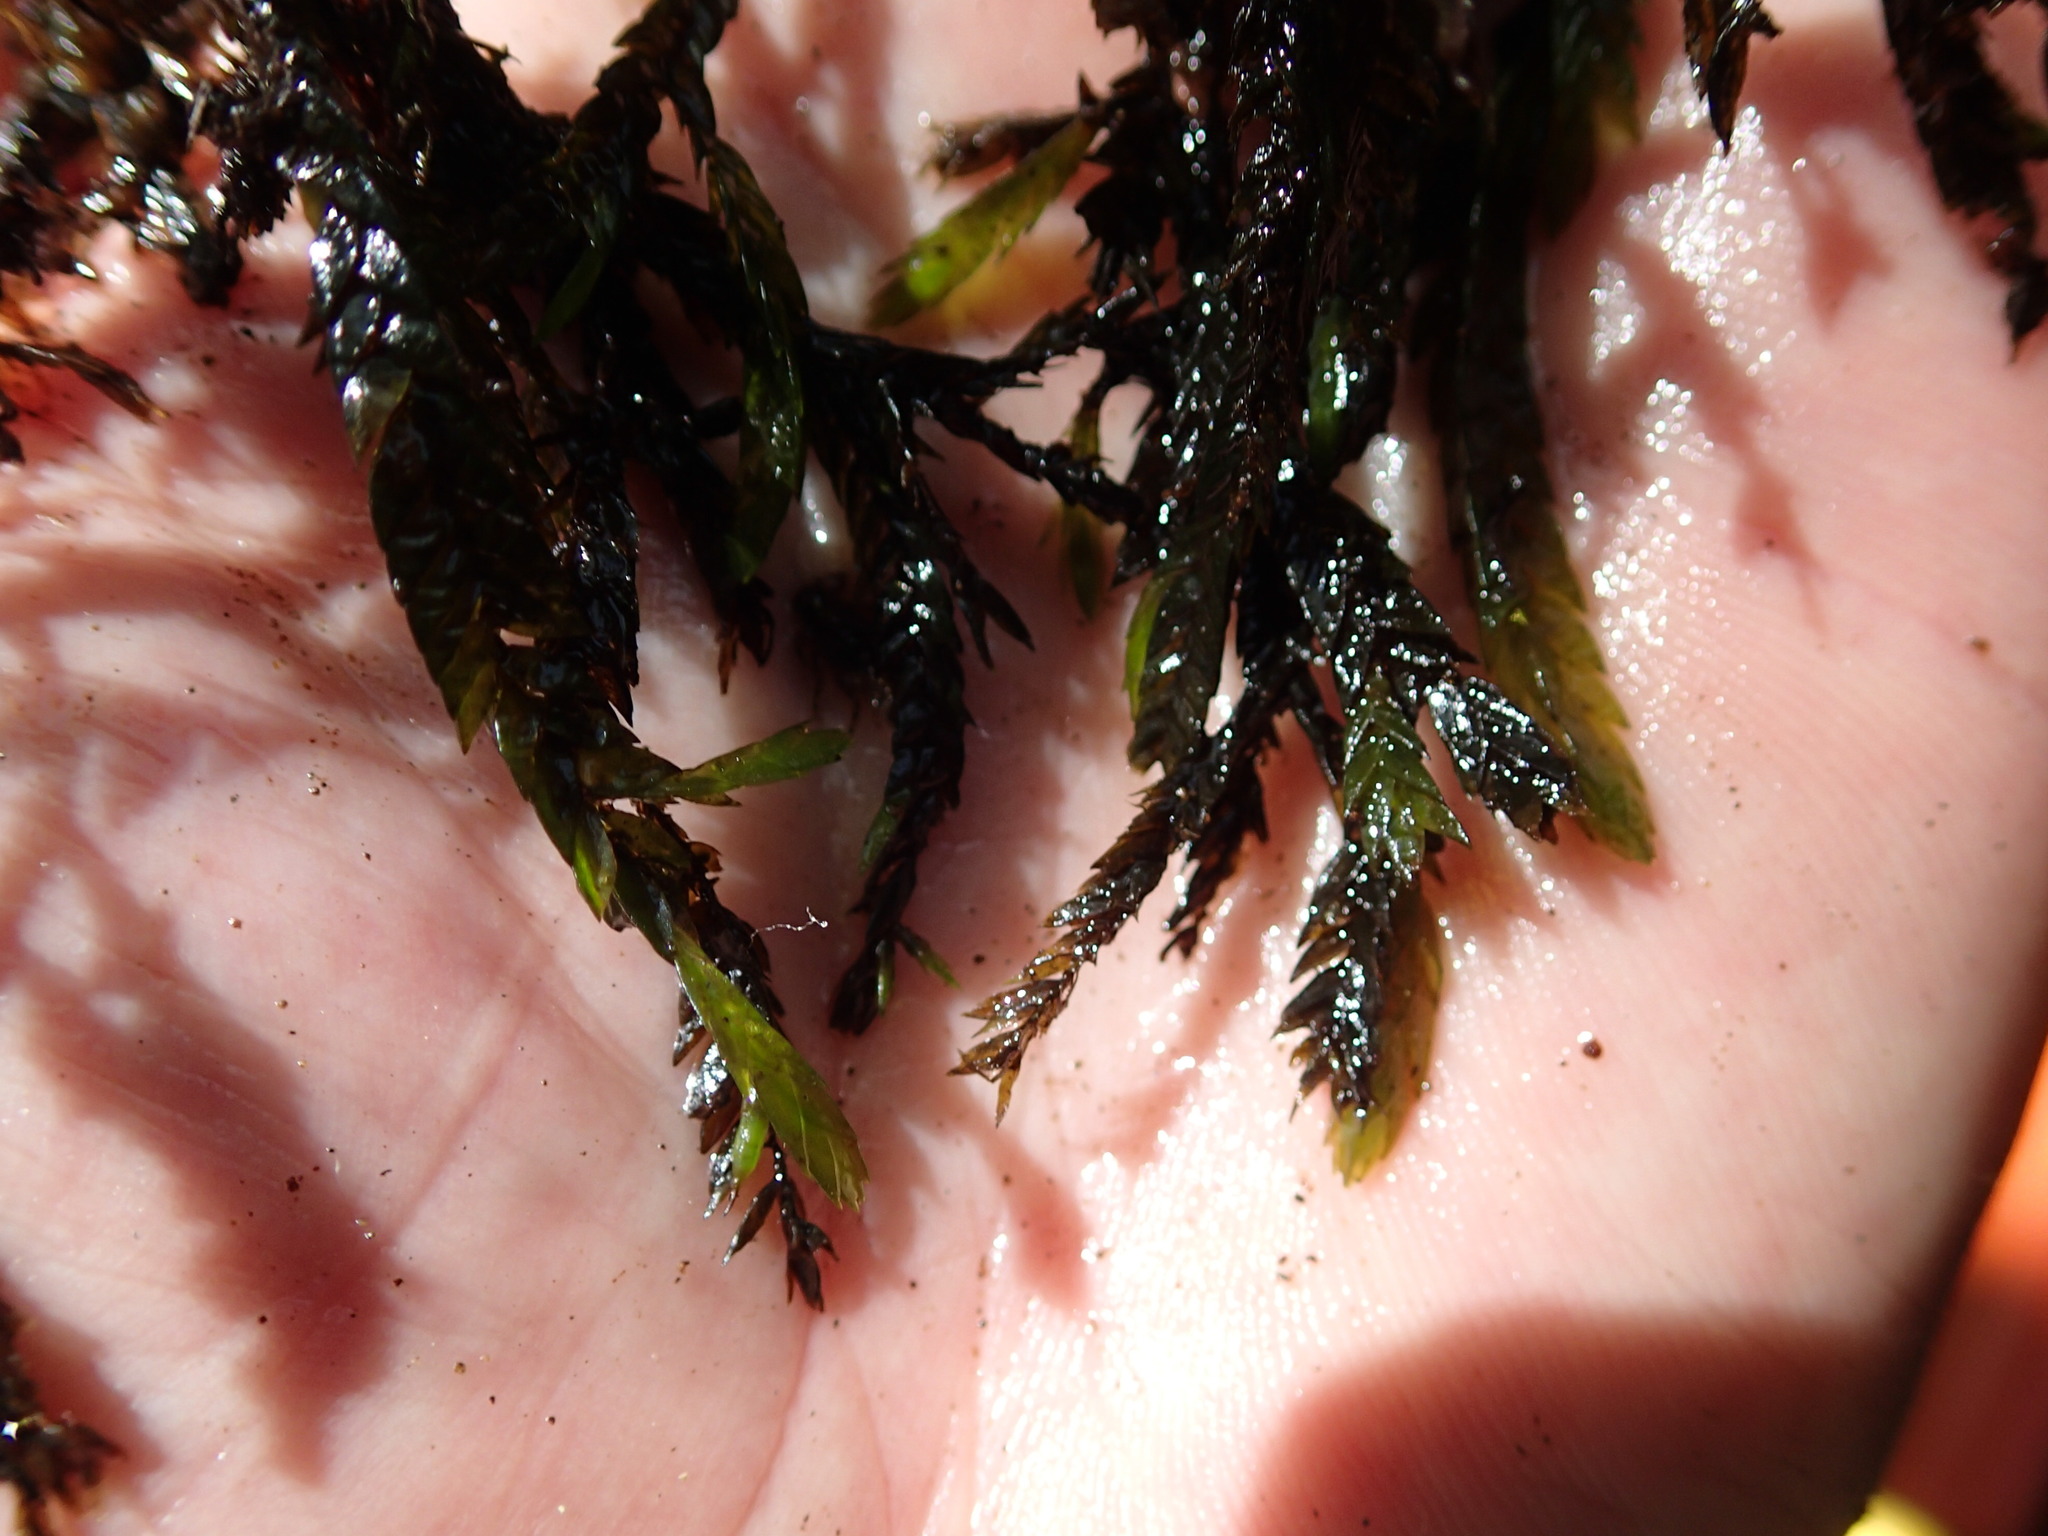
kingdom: Plantae
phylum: Bryophyta
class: Bryopsida
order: Hypnales
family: Fontinalaceae
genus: Fontinalis
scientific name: Fontinalis antipyretica
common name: Greater water-moss
